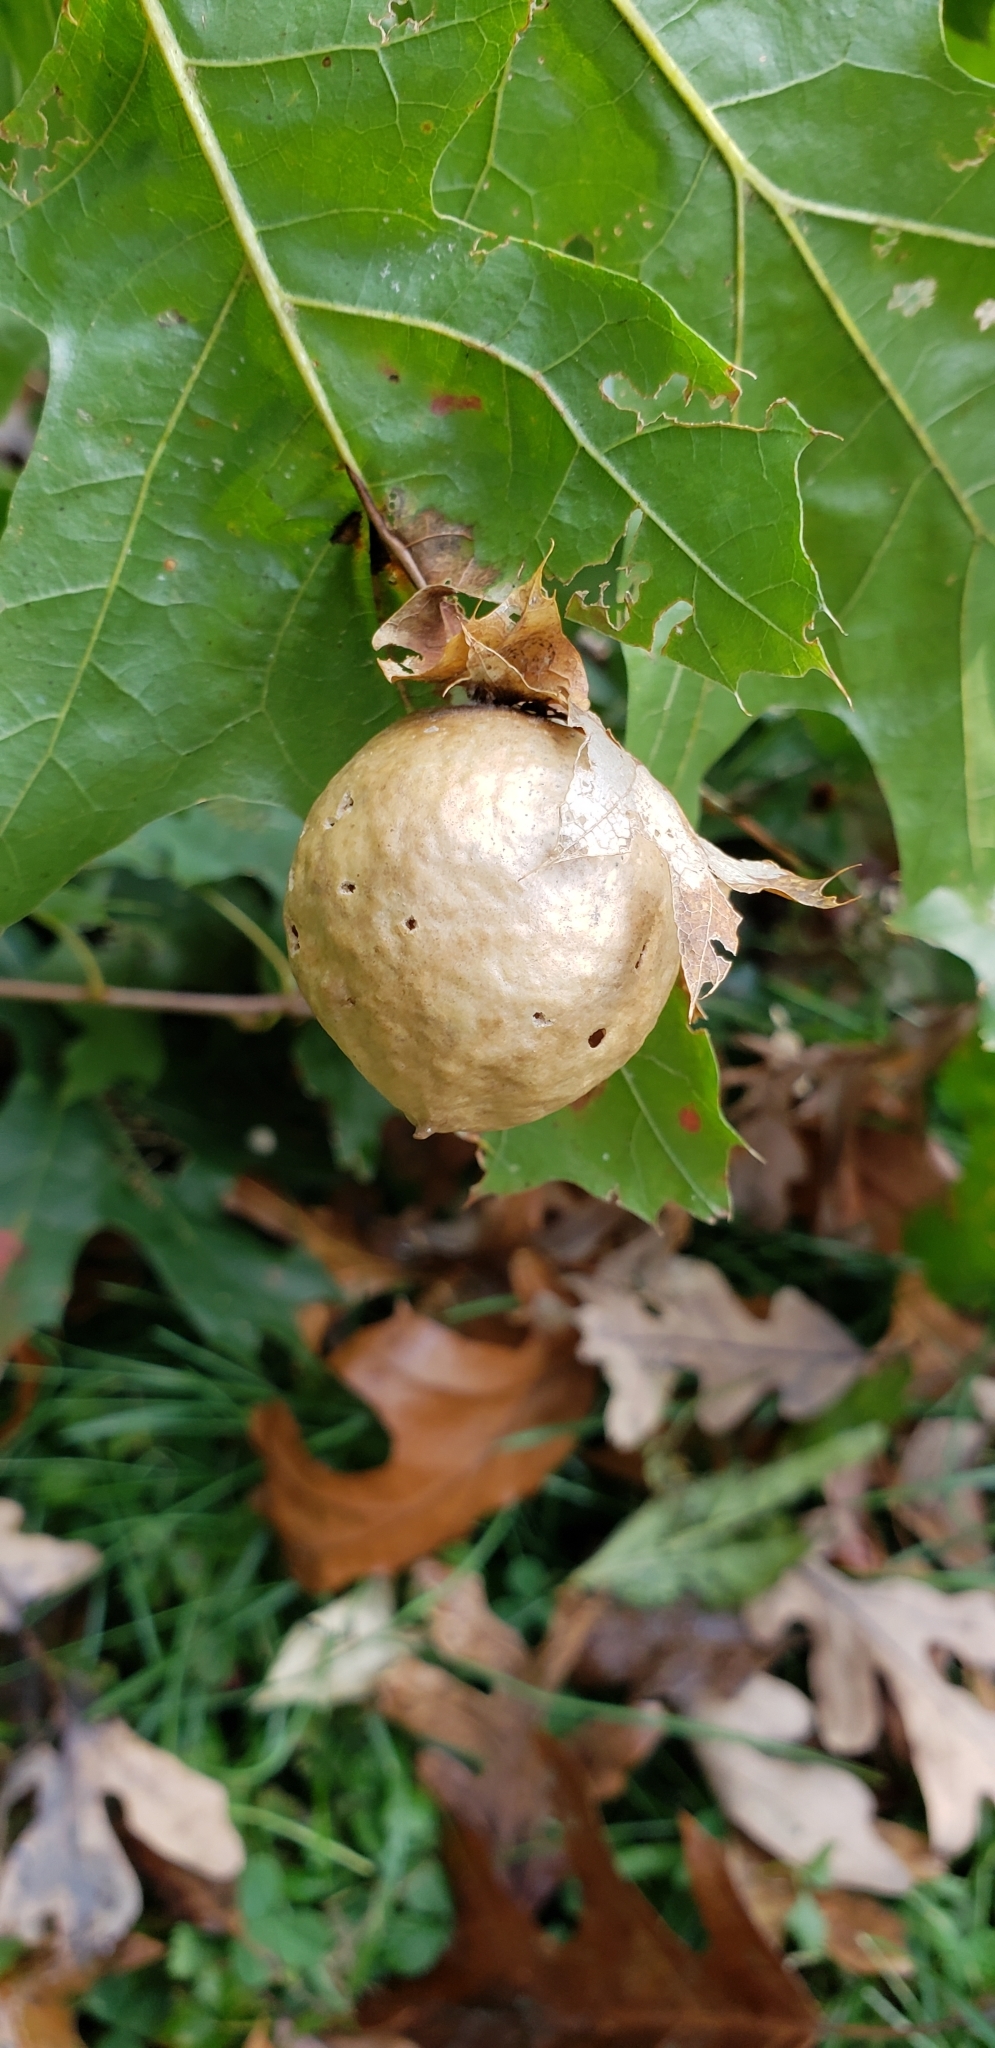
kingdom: Animalia
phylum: Arthropoda
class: Insecta
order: Hymenoptera
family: Cynipidae
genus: Amphibolips
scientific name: Amphibolips
